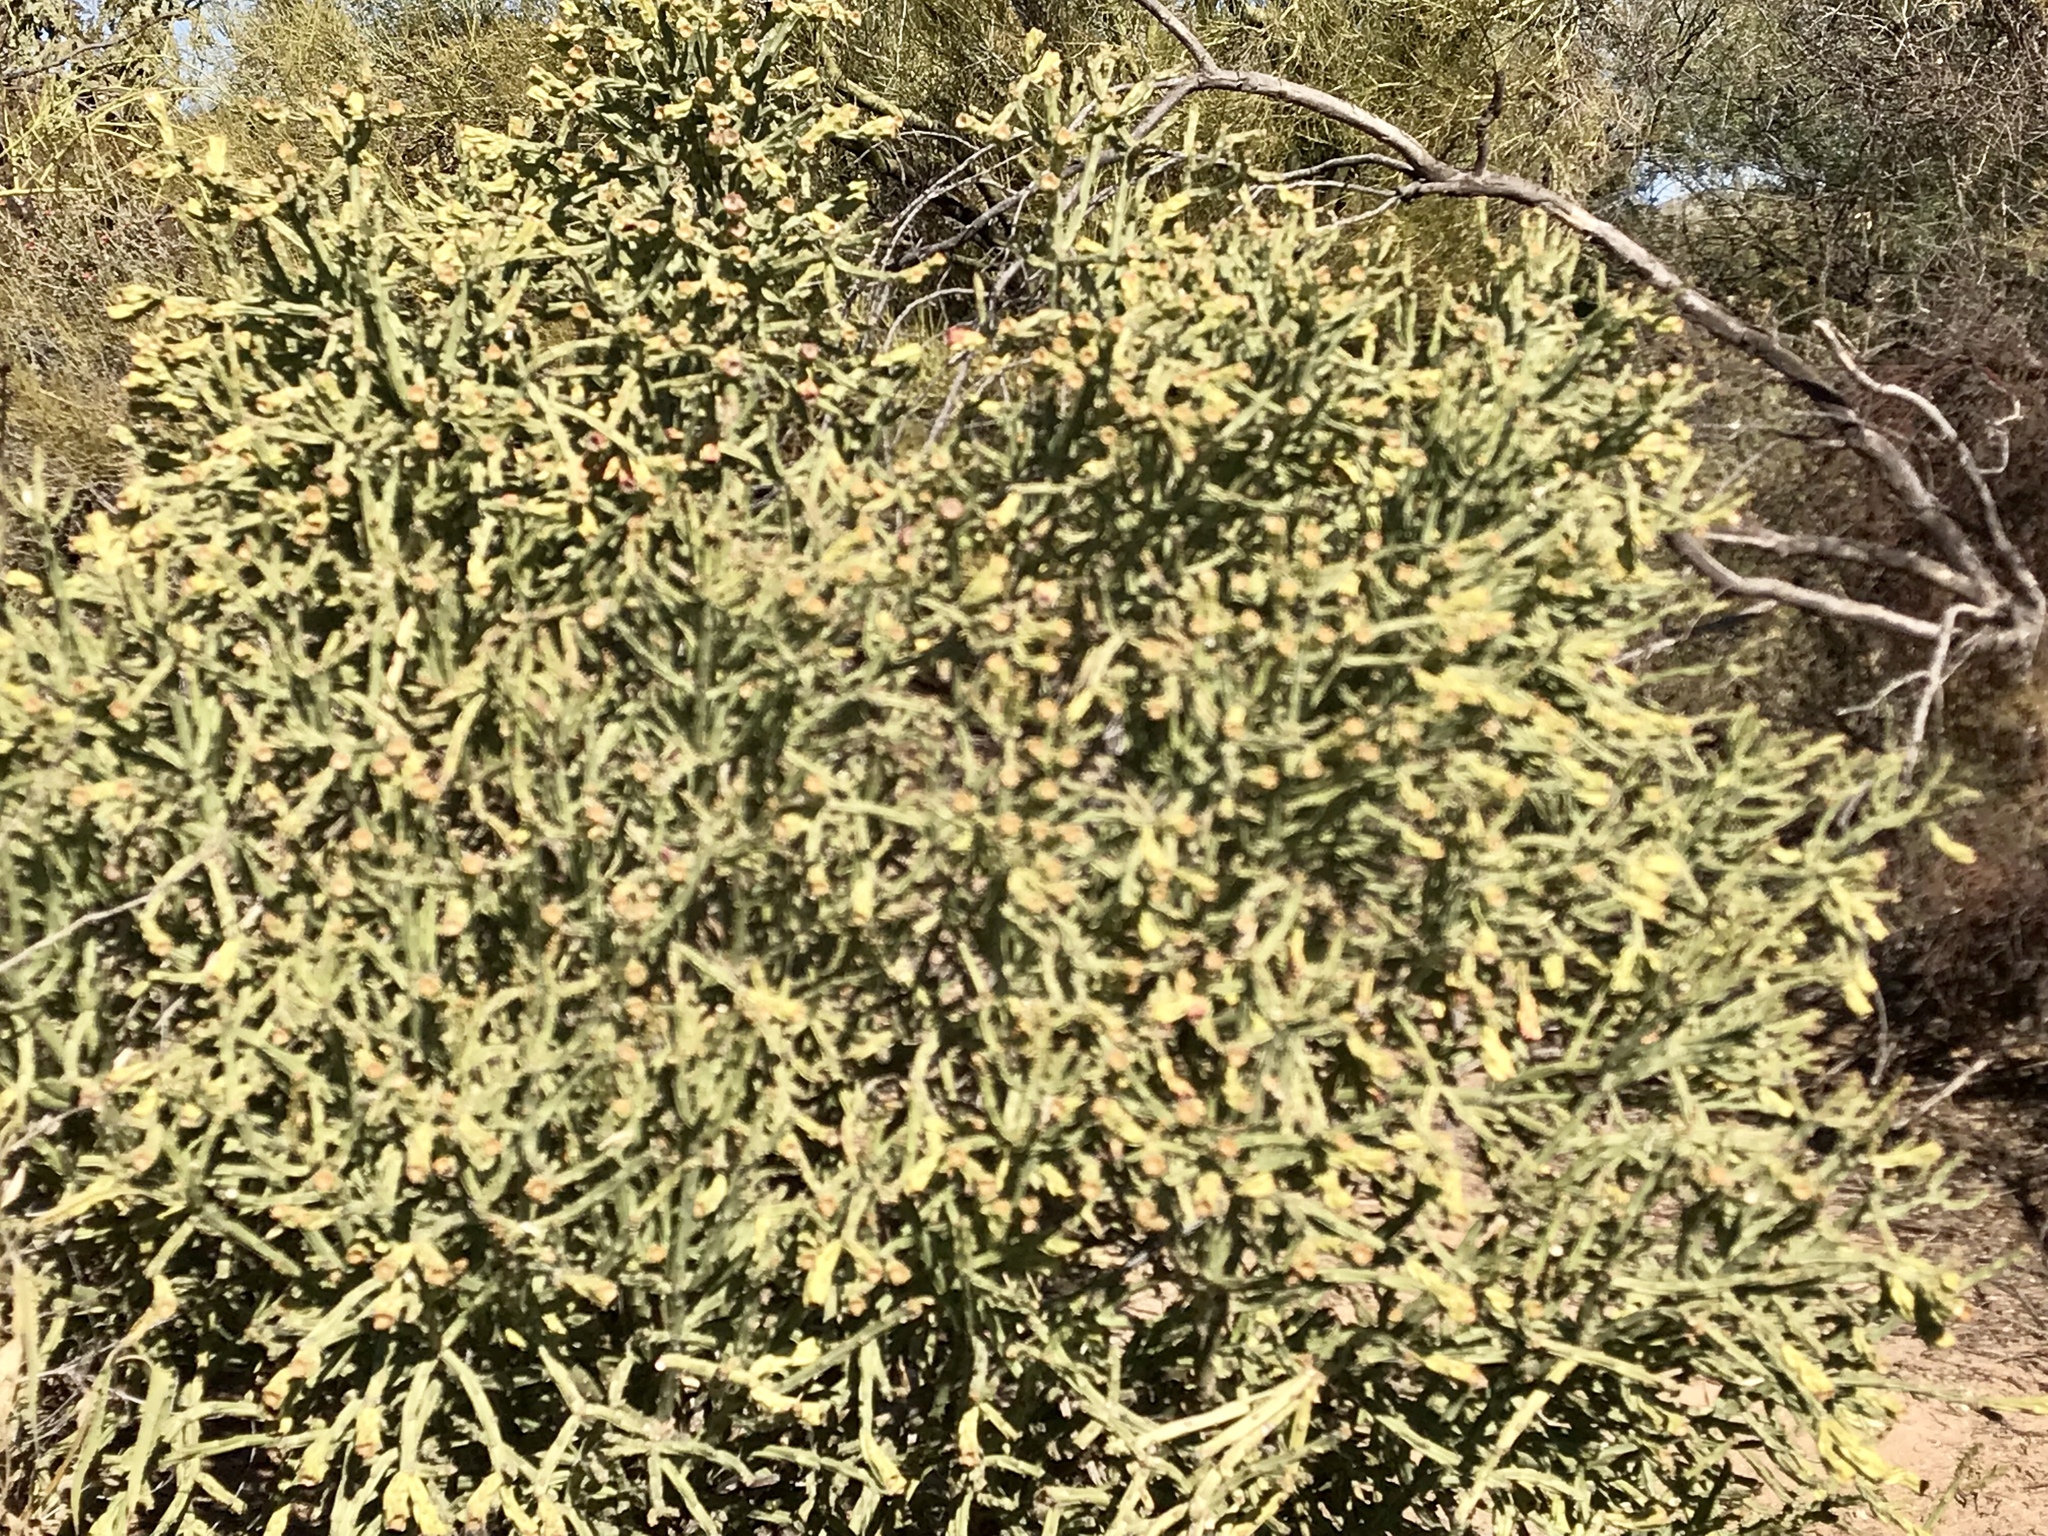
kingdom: Plantae
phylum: Tracheophyta
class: Magnoliopsida
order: Caryophyllales
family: Cactaceae
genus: Cylindropuntia
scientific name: Cylindropuntia arbuscula
